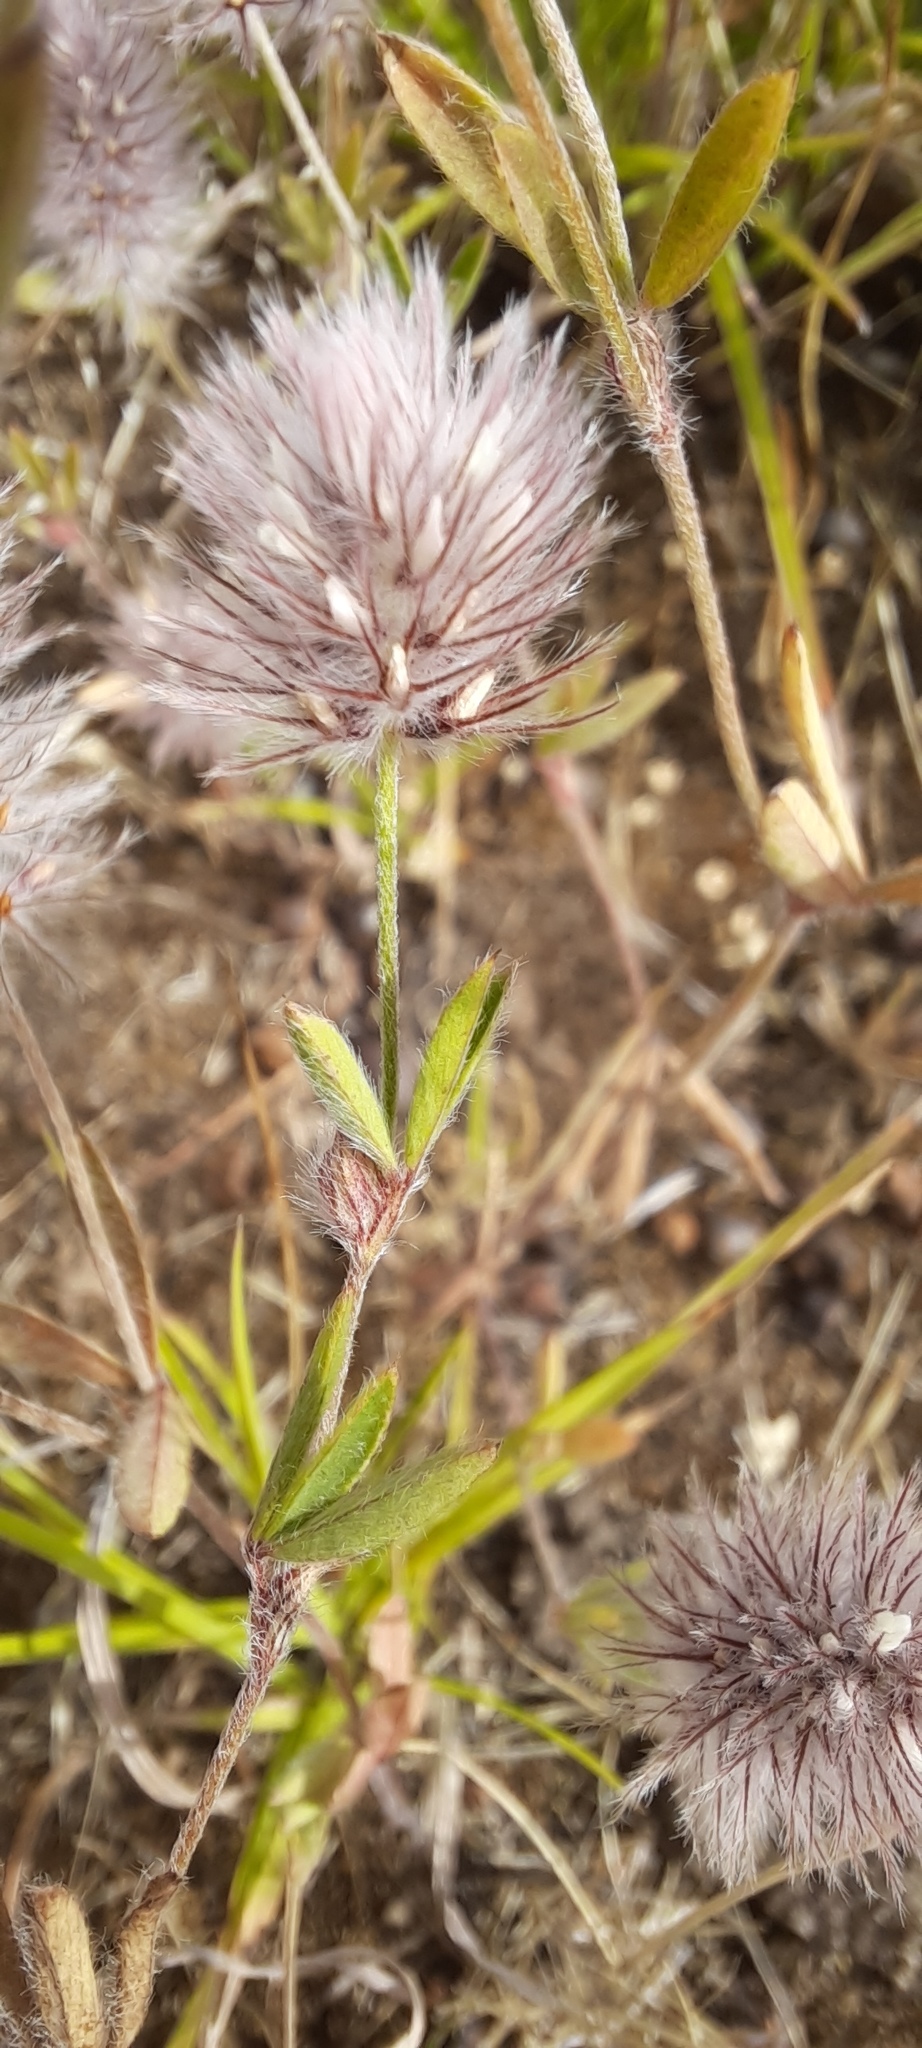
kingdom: Plantae
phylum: Tracheophyta
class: Magnoliopsida
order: Fabales
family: Fabaceae
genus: Trifolium
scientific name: Trifolium arvense
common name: Hare's-foot clover
